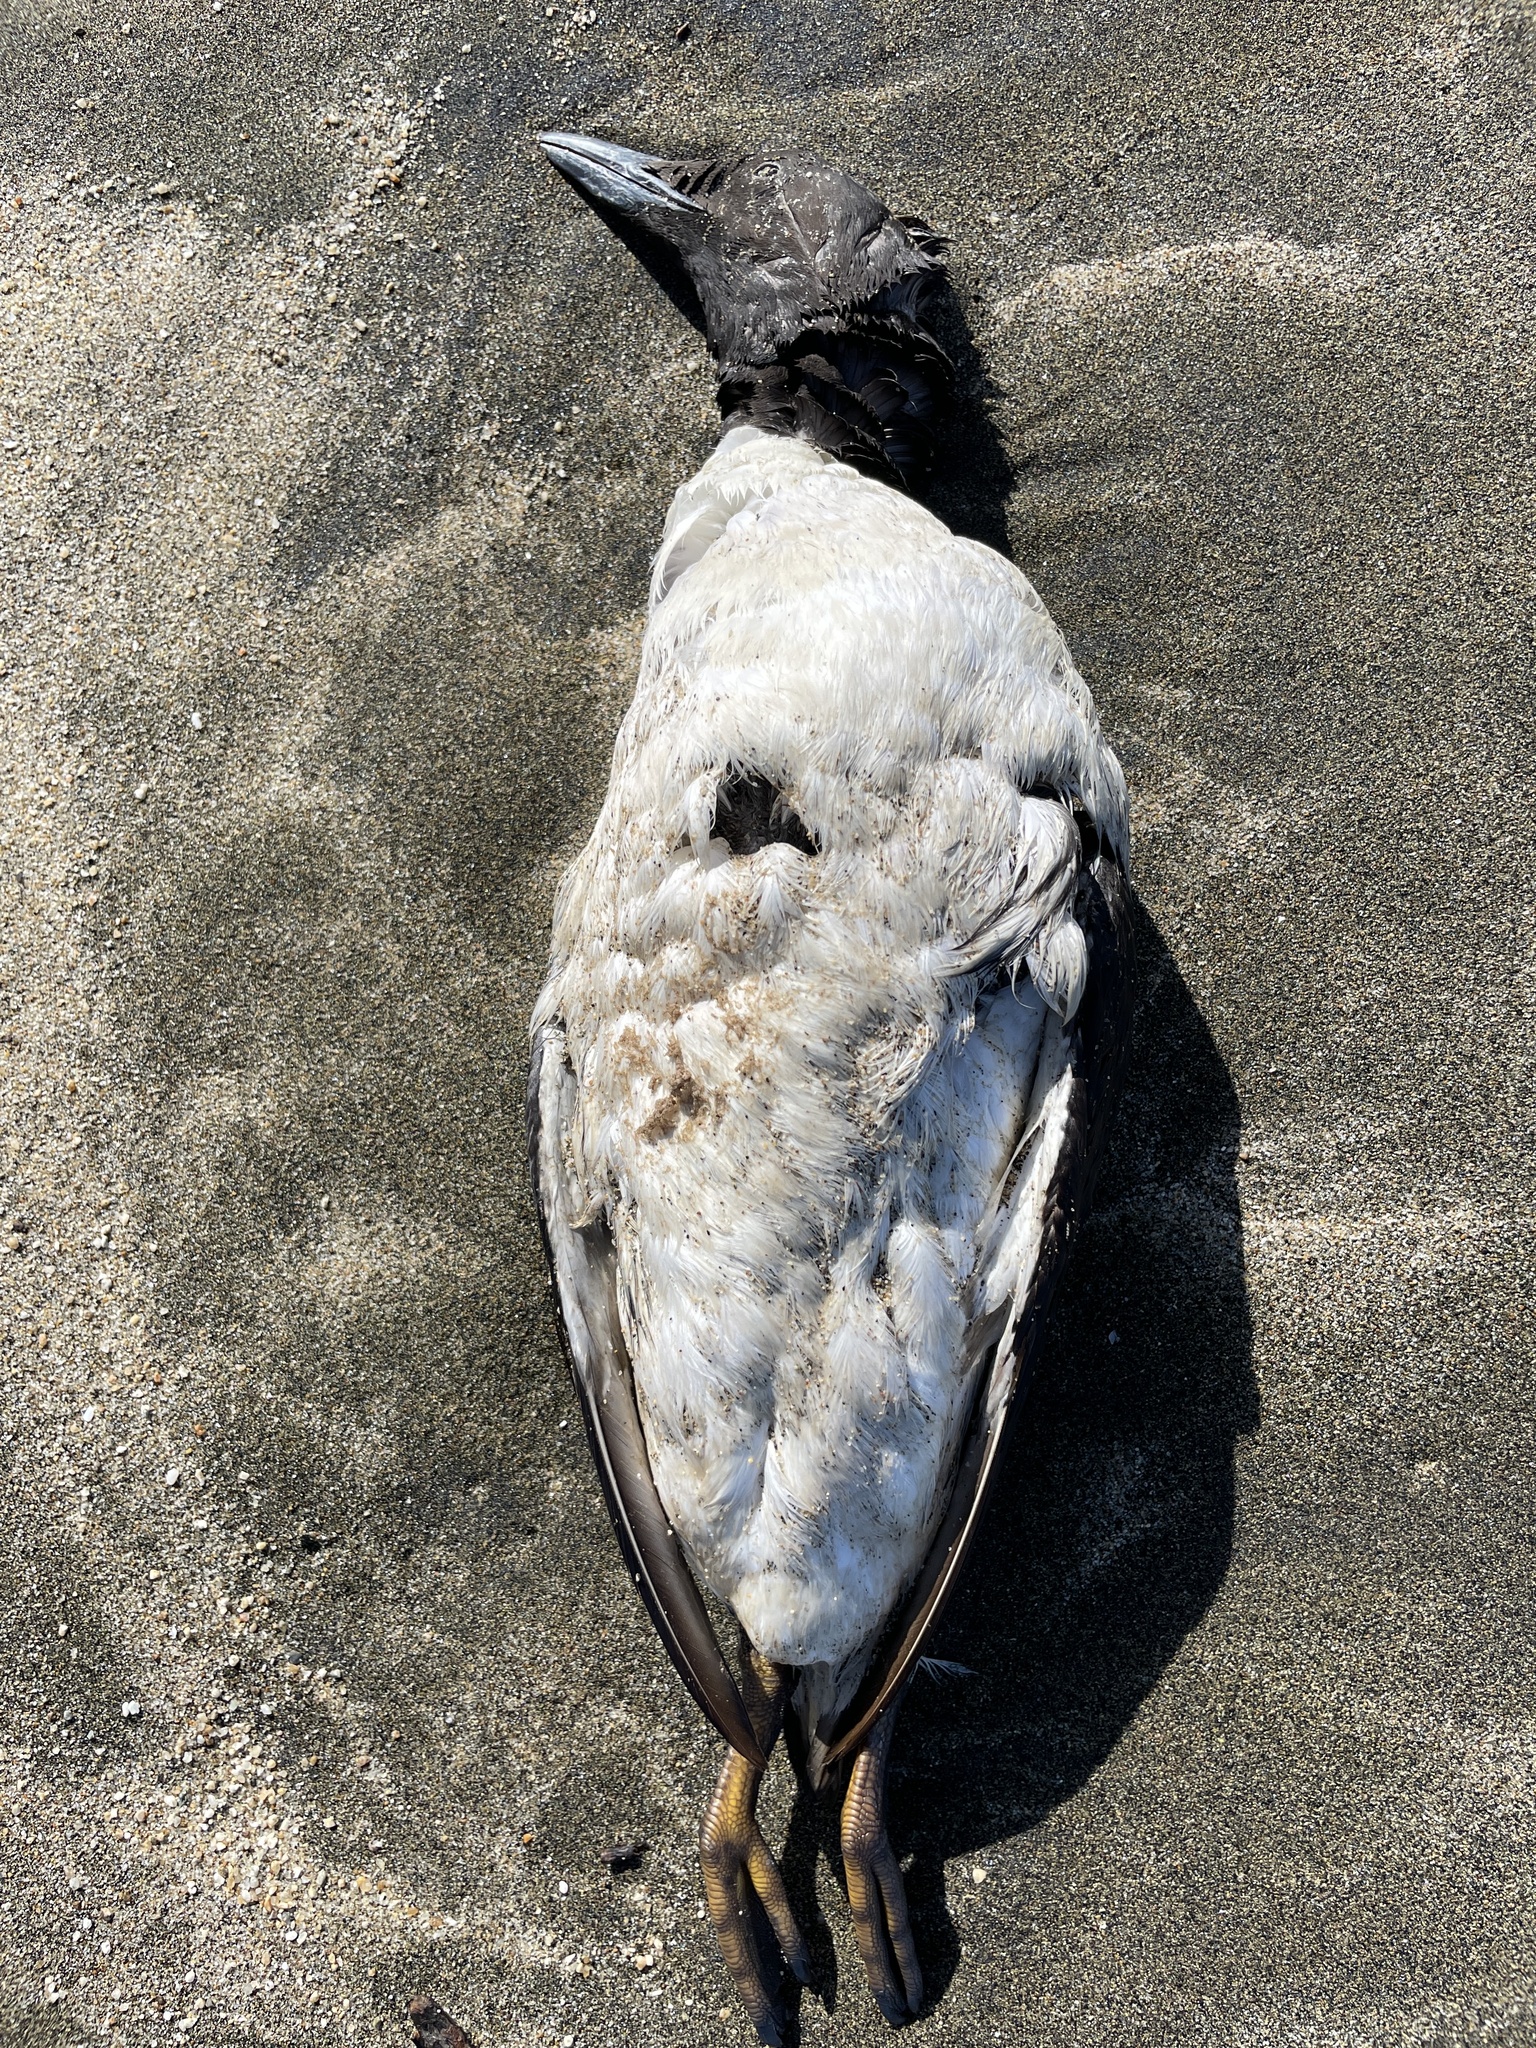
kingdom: Animalia
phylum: Chordata
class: Aves
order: Charadriiformes
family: Alcidae
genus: Uria
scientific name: Uria aalge
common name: Common murre
